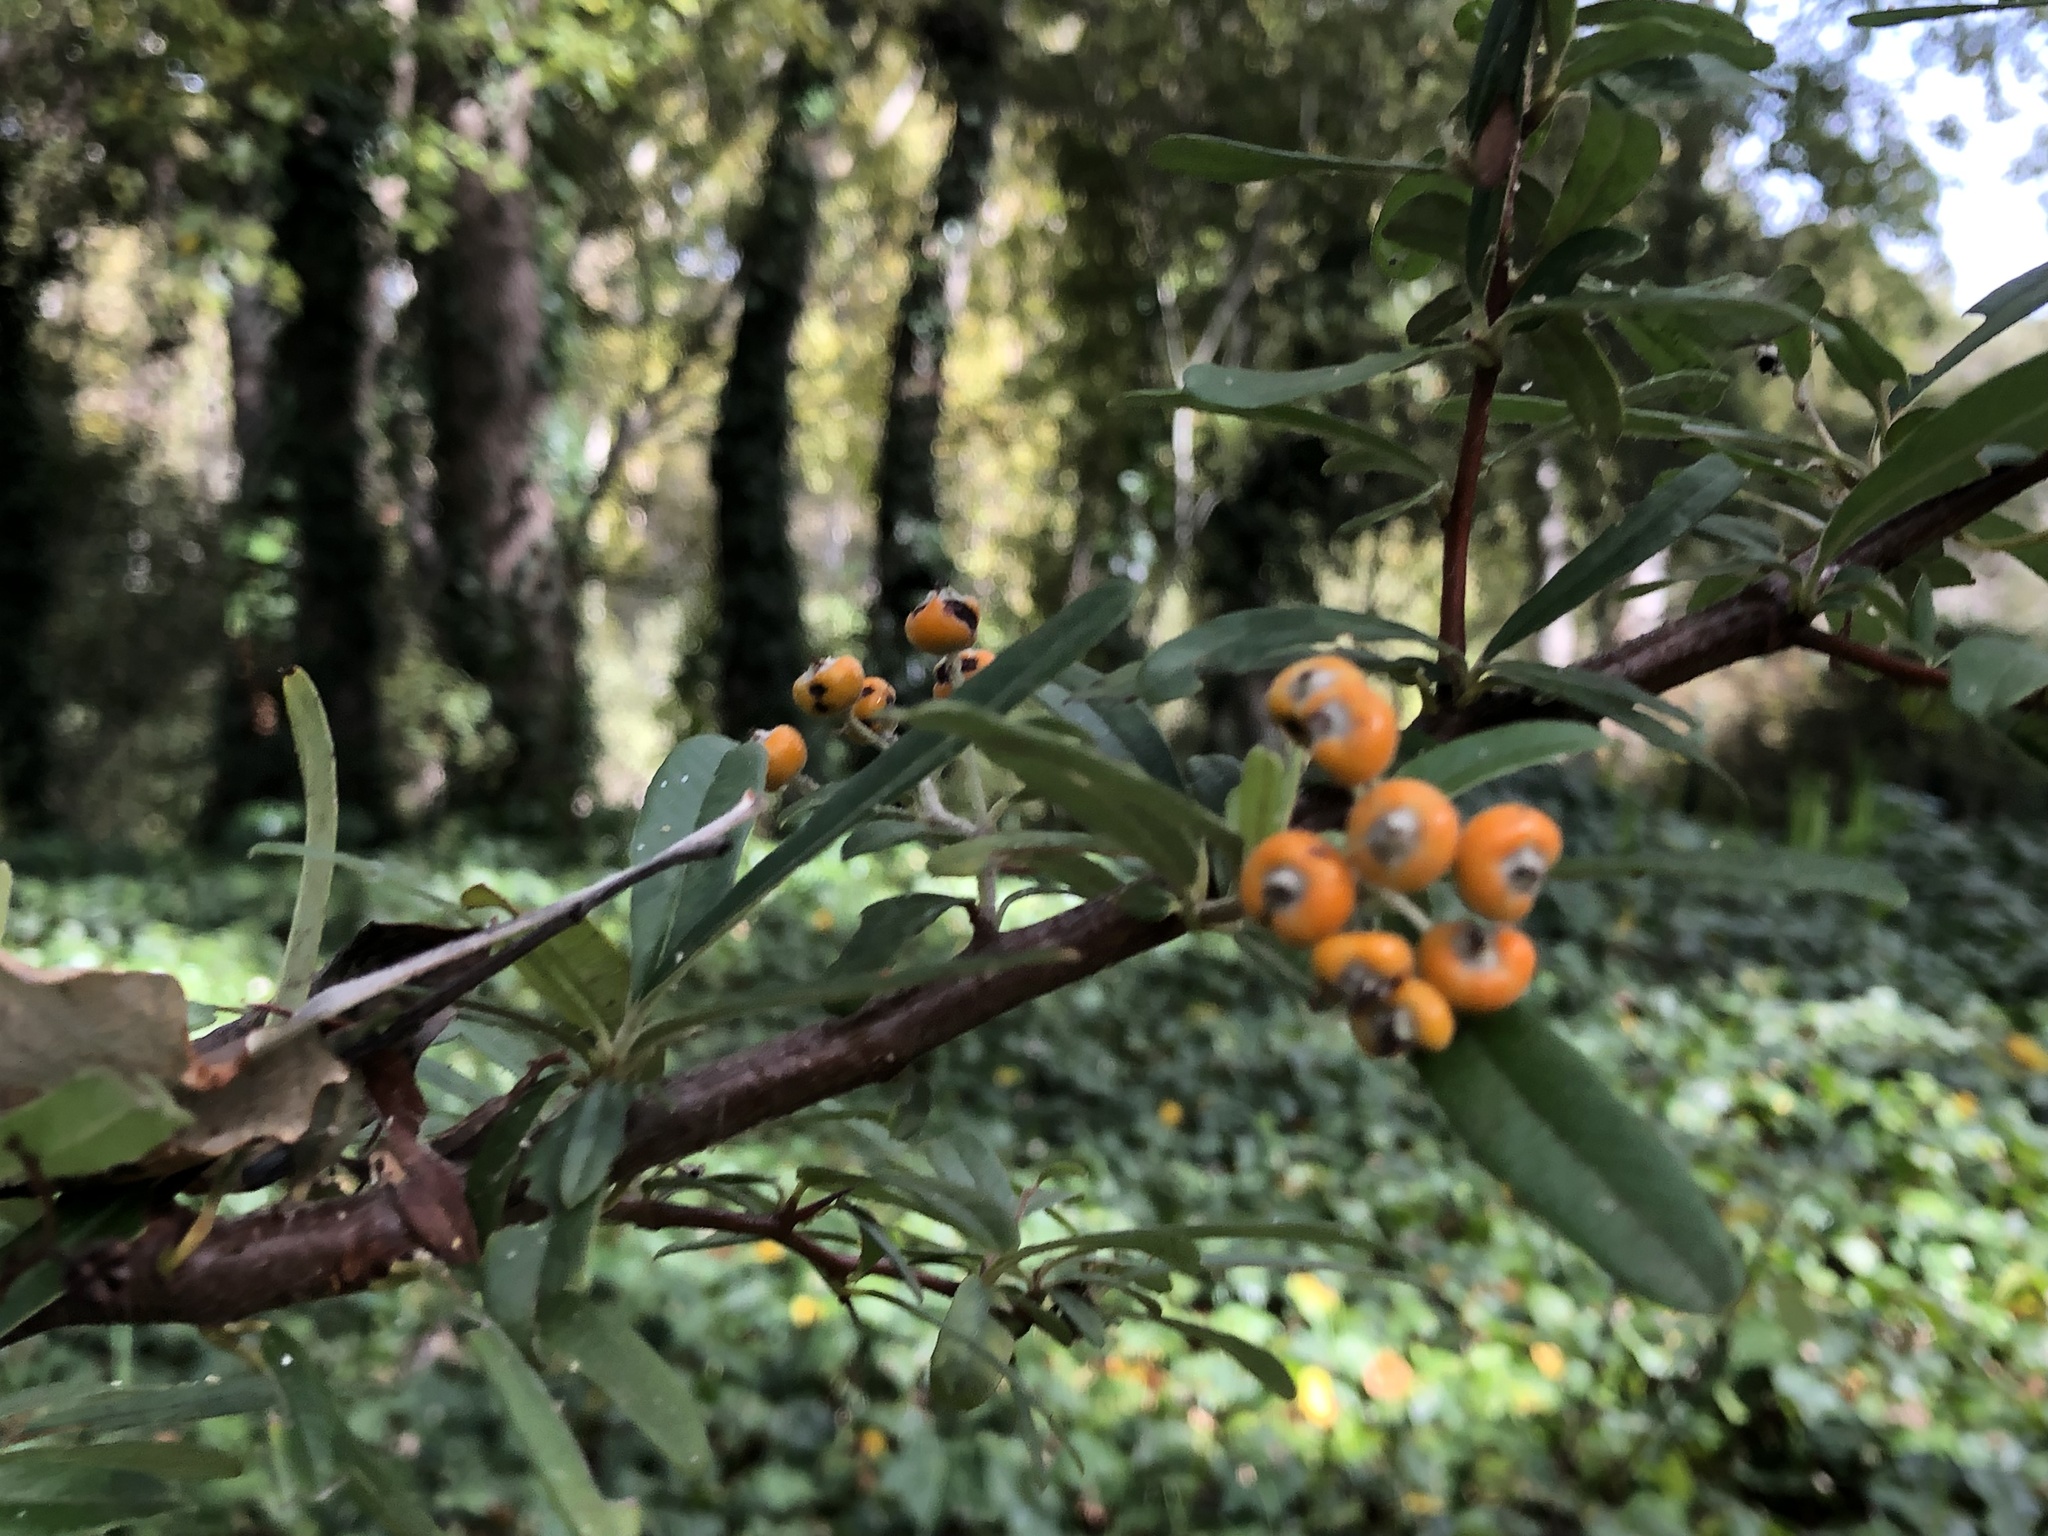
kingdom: Plantae
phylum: Tracheophyta
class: Magnoliopsida
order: Rosales
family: Rosaceae
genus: Pyracantha
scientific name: Pyracantha angustifolia
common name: Narrowleaf firethorn
